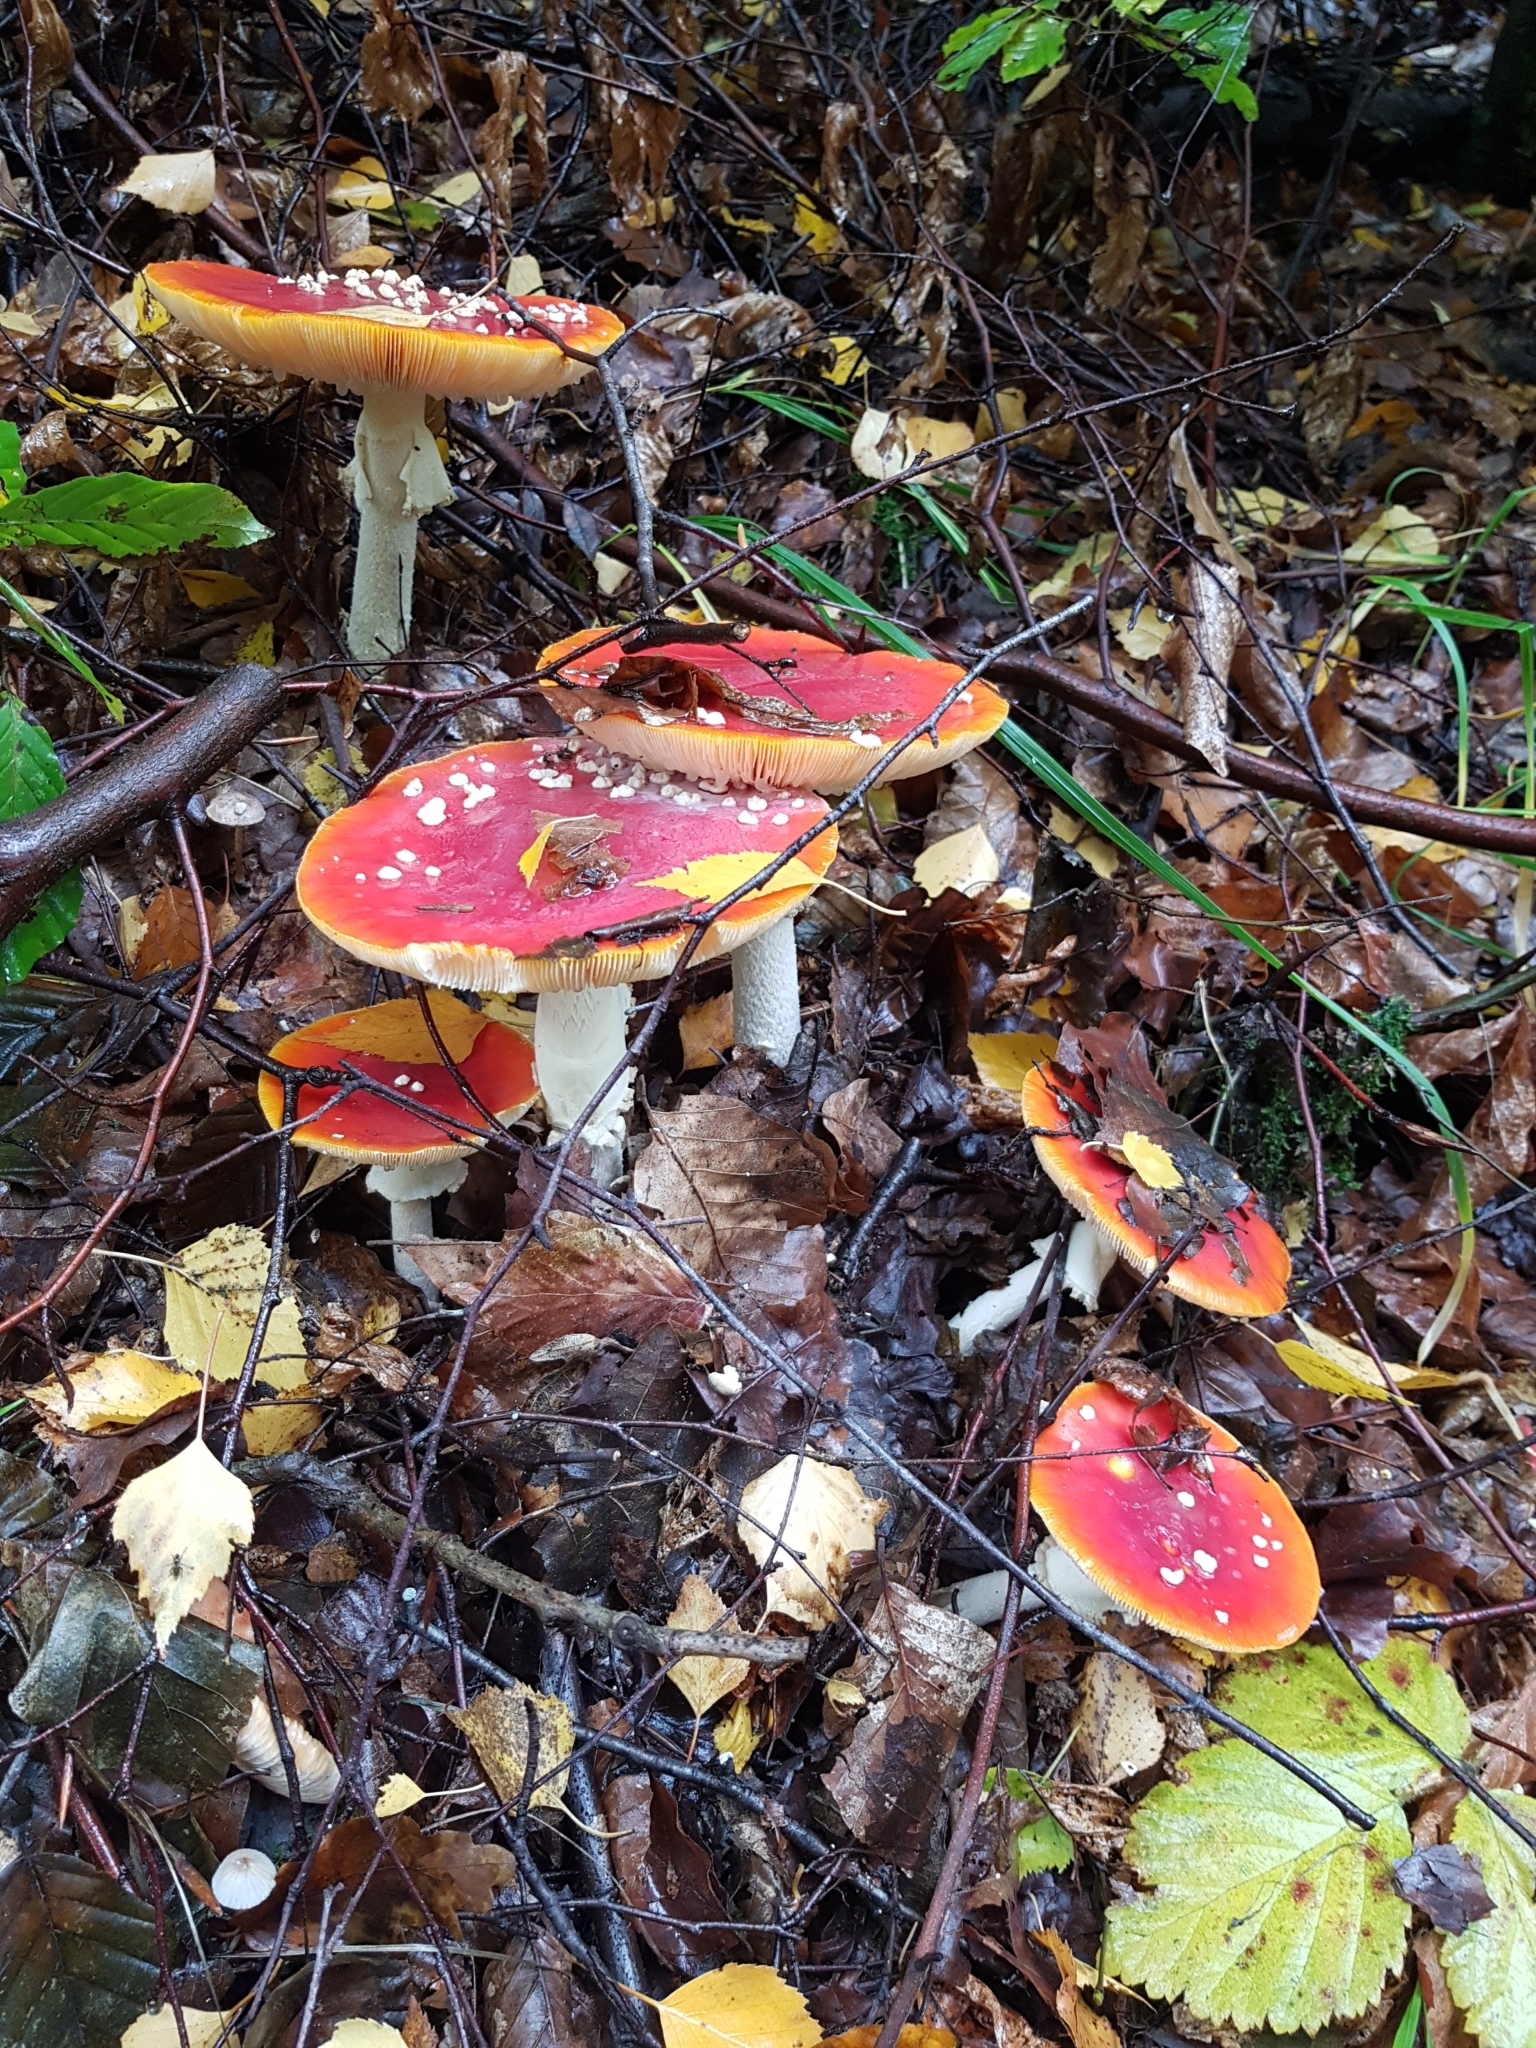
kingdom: Fungi
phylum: Basidiomycota
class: Agaricomycetes
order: Agaricales
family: Amanitaceae
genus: Amanita
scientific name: Amanita muscaria
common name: Fly agaric
